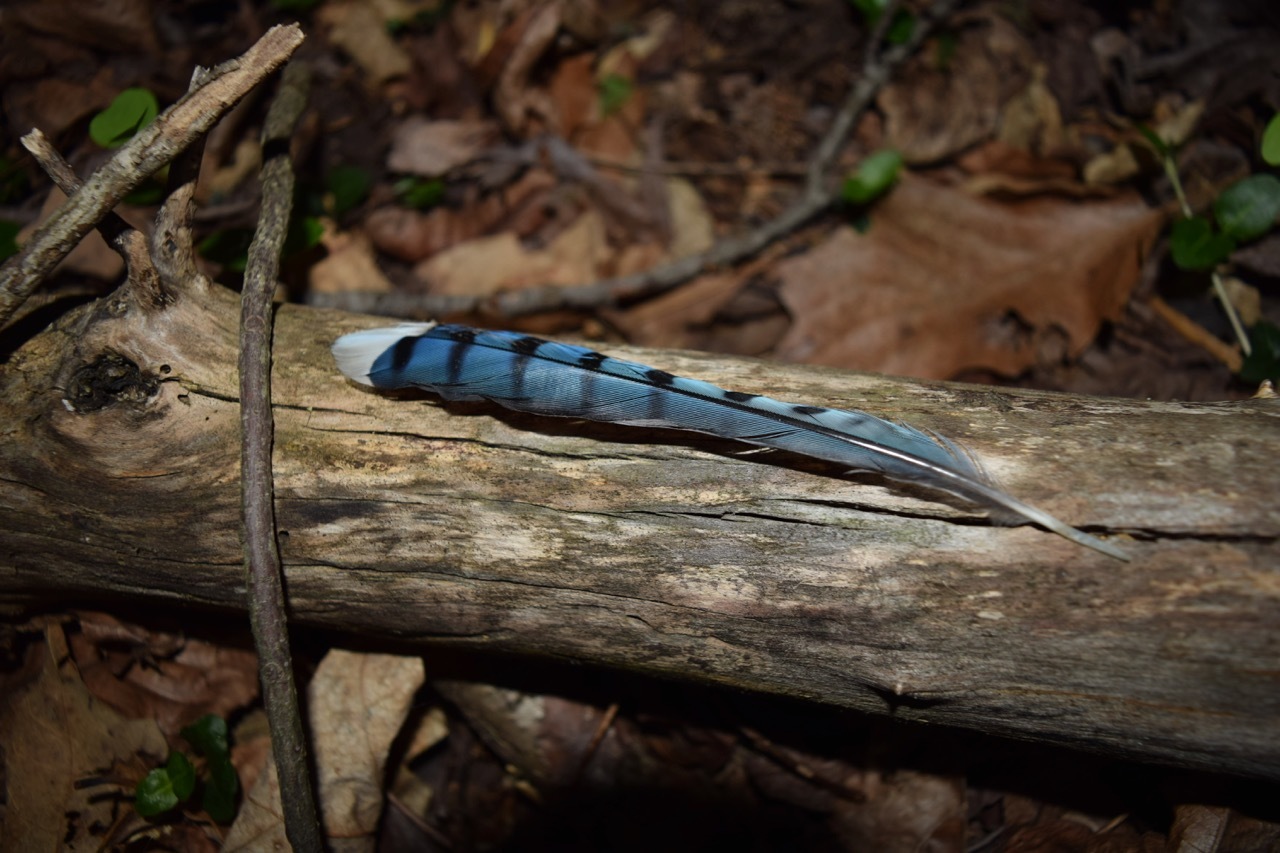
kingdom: Animalia
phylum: Chordata
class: Aves
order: Passeriformes
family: Corvidae
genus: Cyanocitta
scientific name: Cyanocitta cristata
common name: Blue jay
